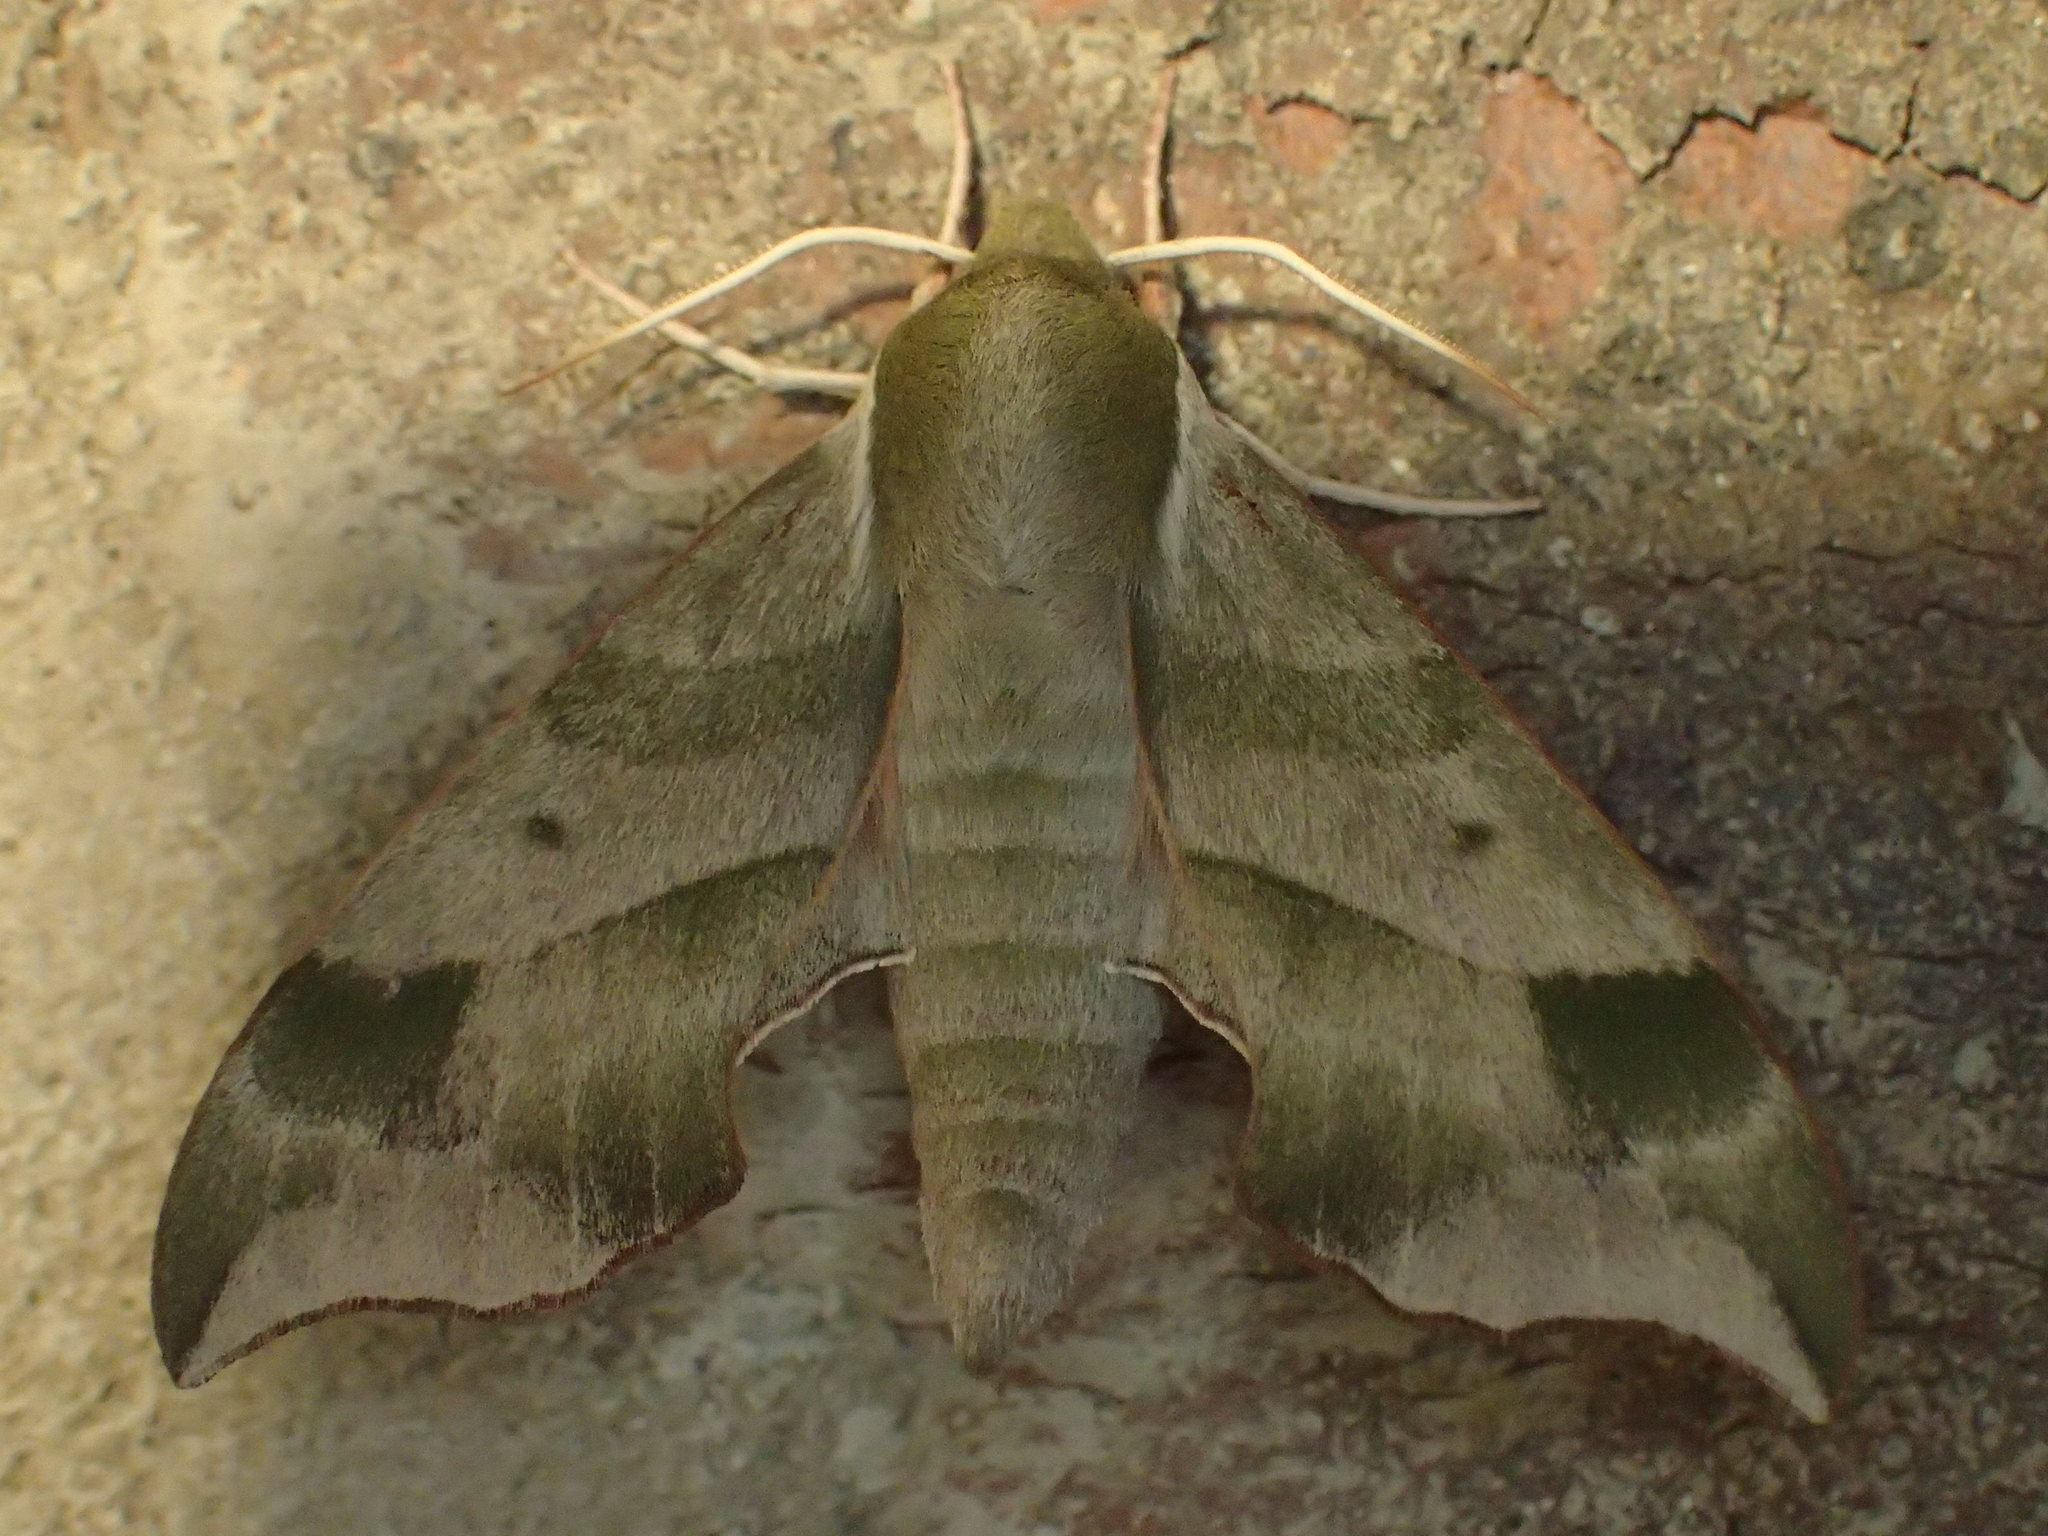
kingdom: Animalia
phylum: Arthropoda
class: Insecta
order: Lepidoptera
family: Sphingidae
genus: Darapsa
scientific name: Darapsa myron
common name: Hog sphinx
